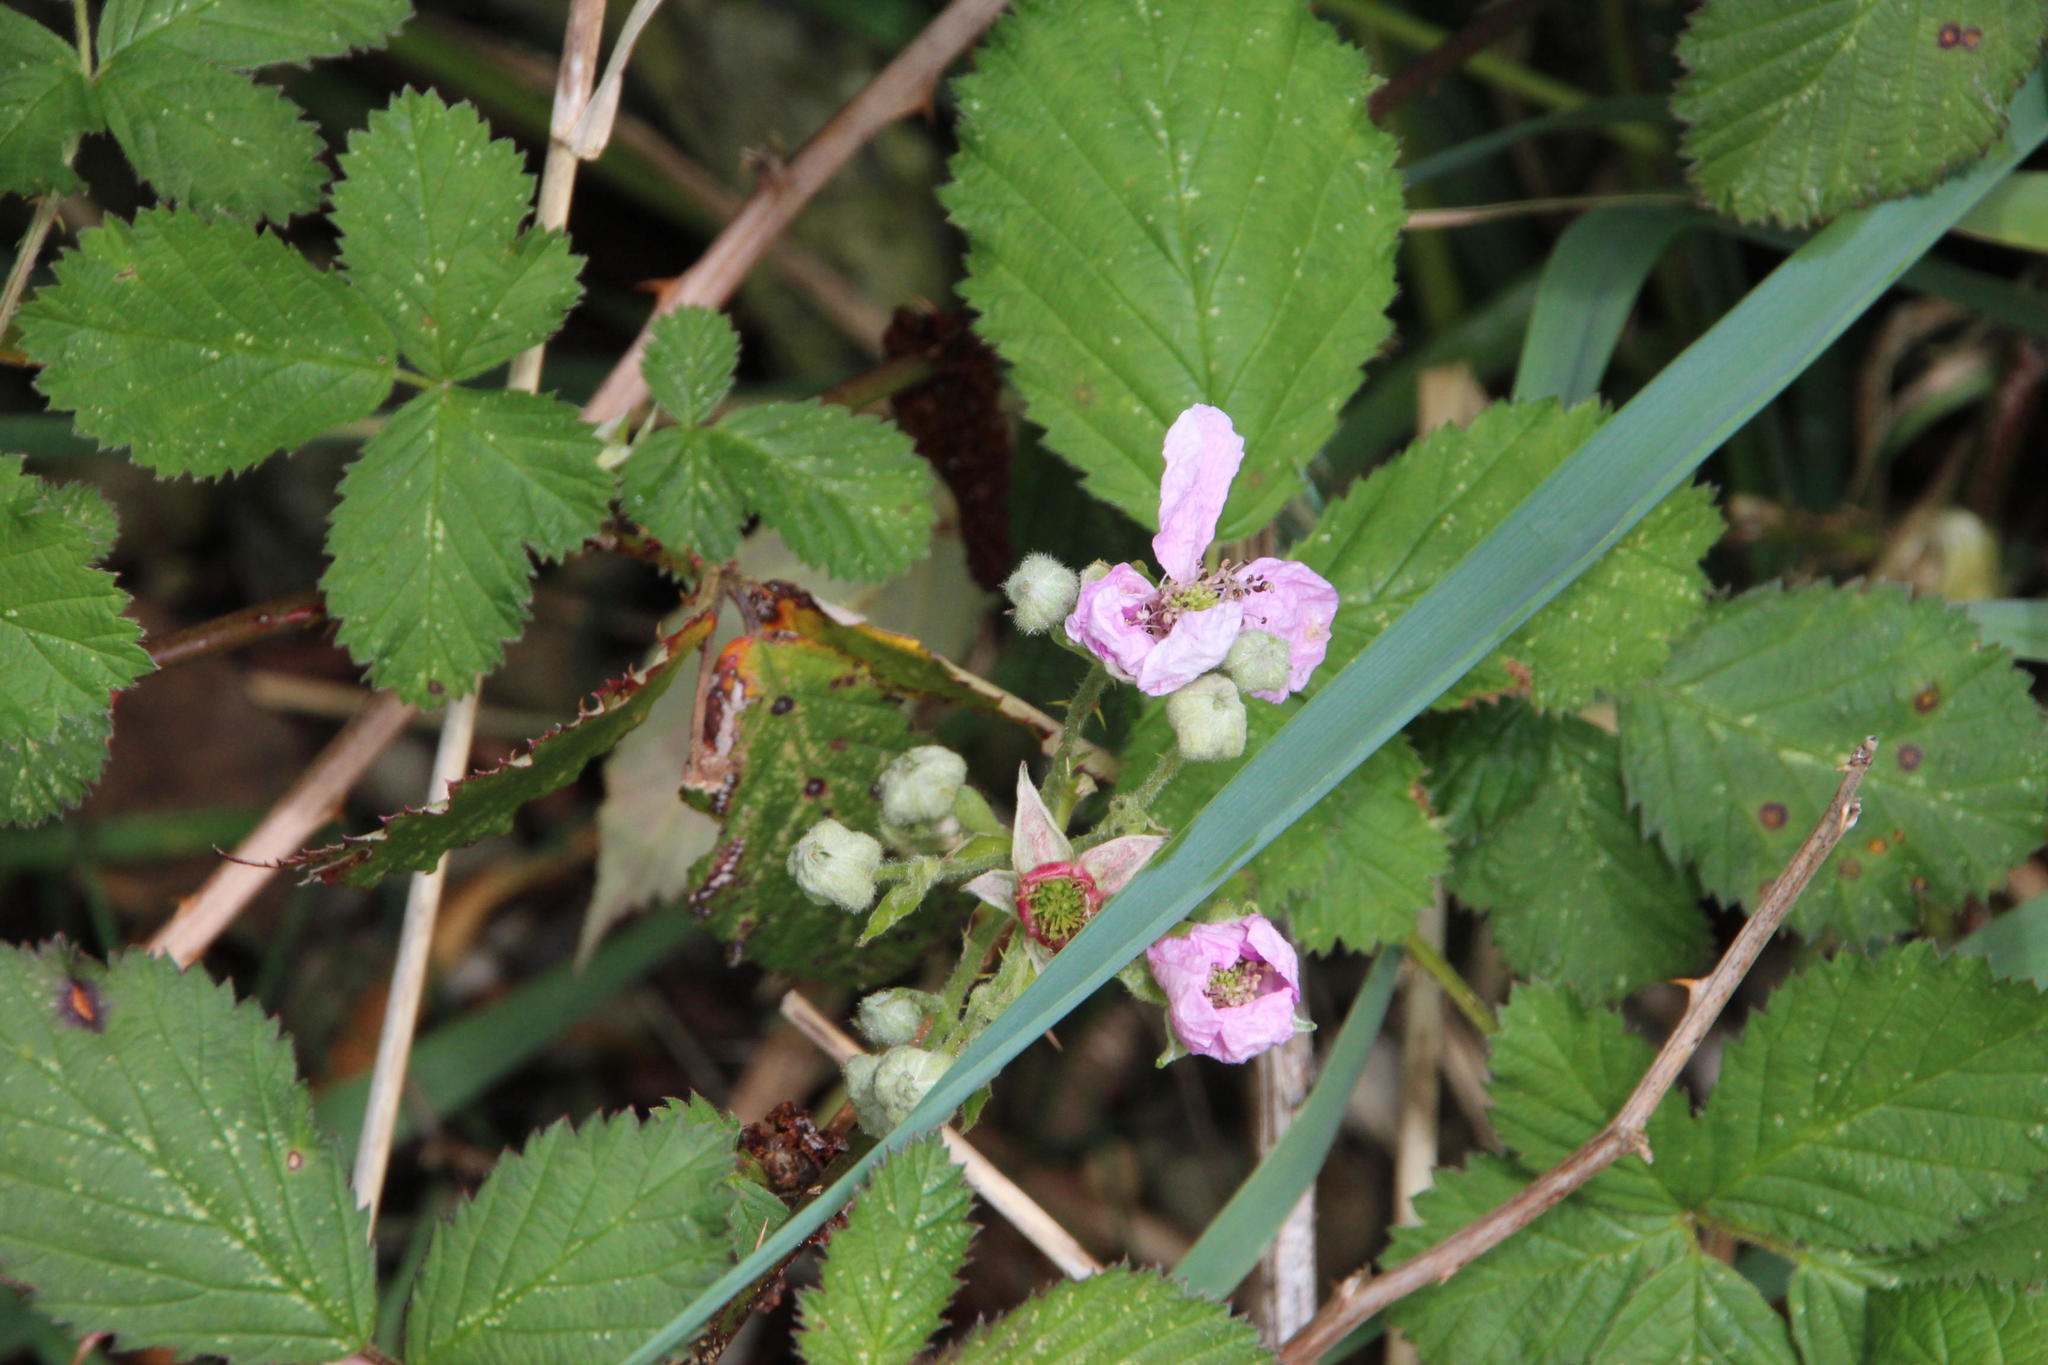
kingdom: Plantae
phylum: Tracheophyta
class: Magnoliopsida
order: Rosales
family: Rosaceae
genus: Rubus
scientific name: Rubus ulmifolius
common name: Elmleaf blackberry
